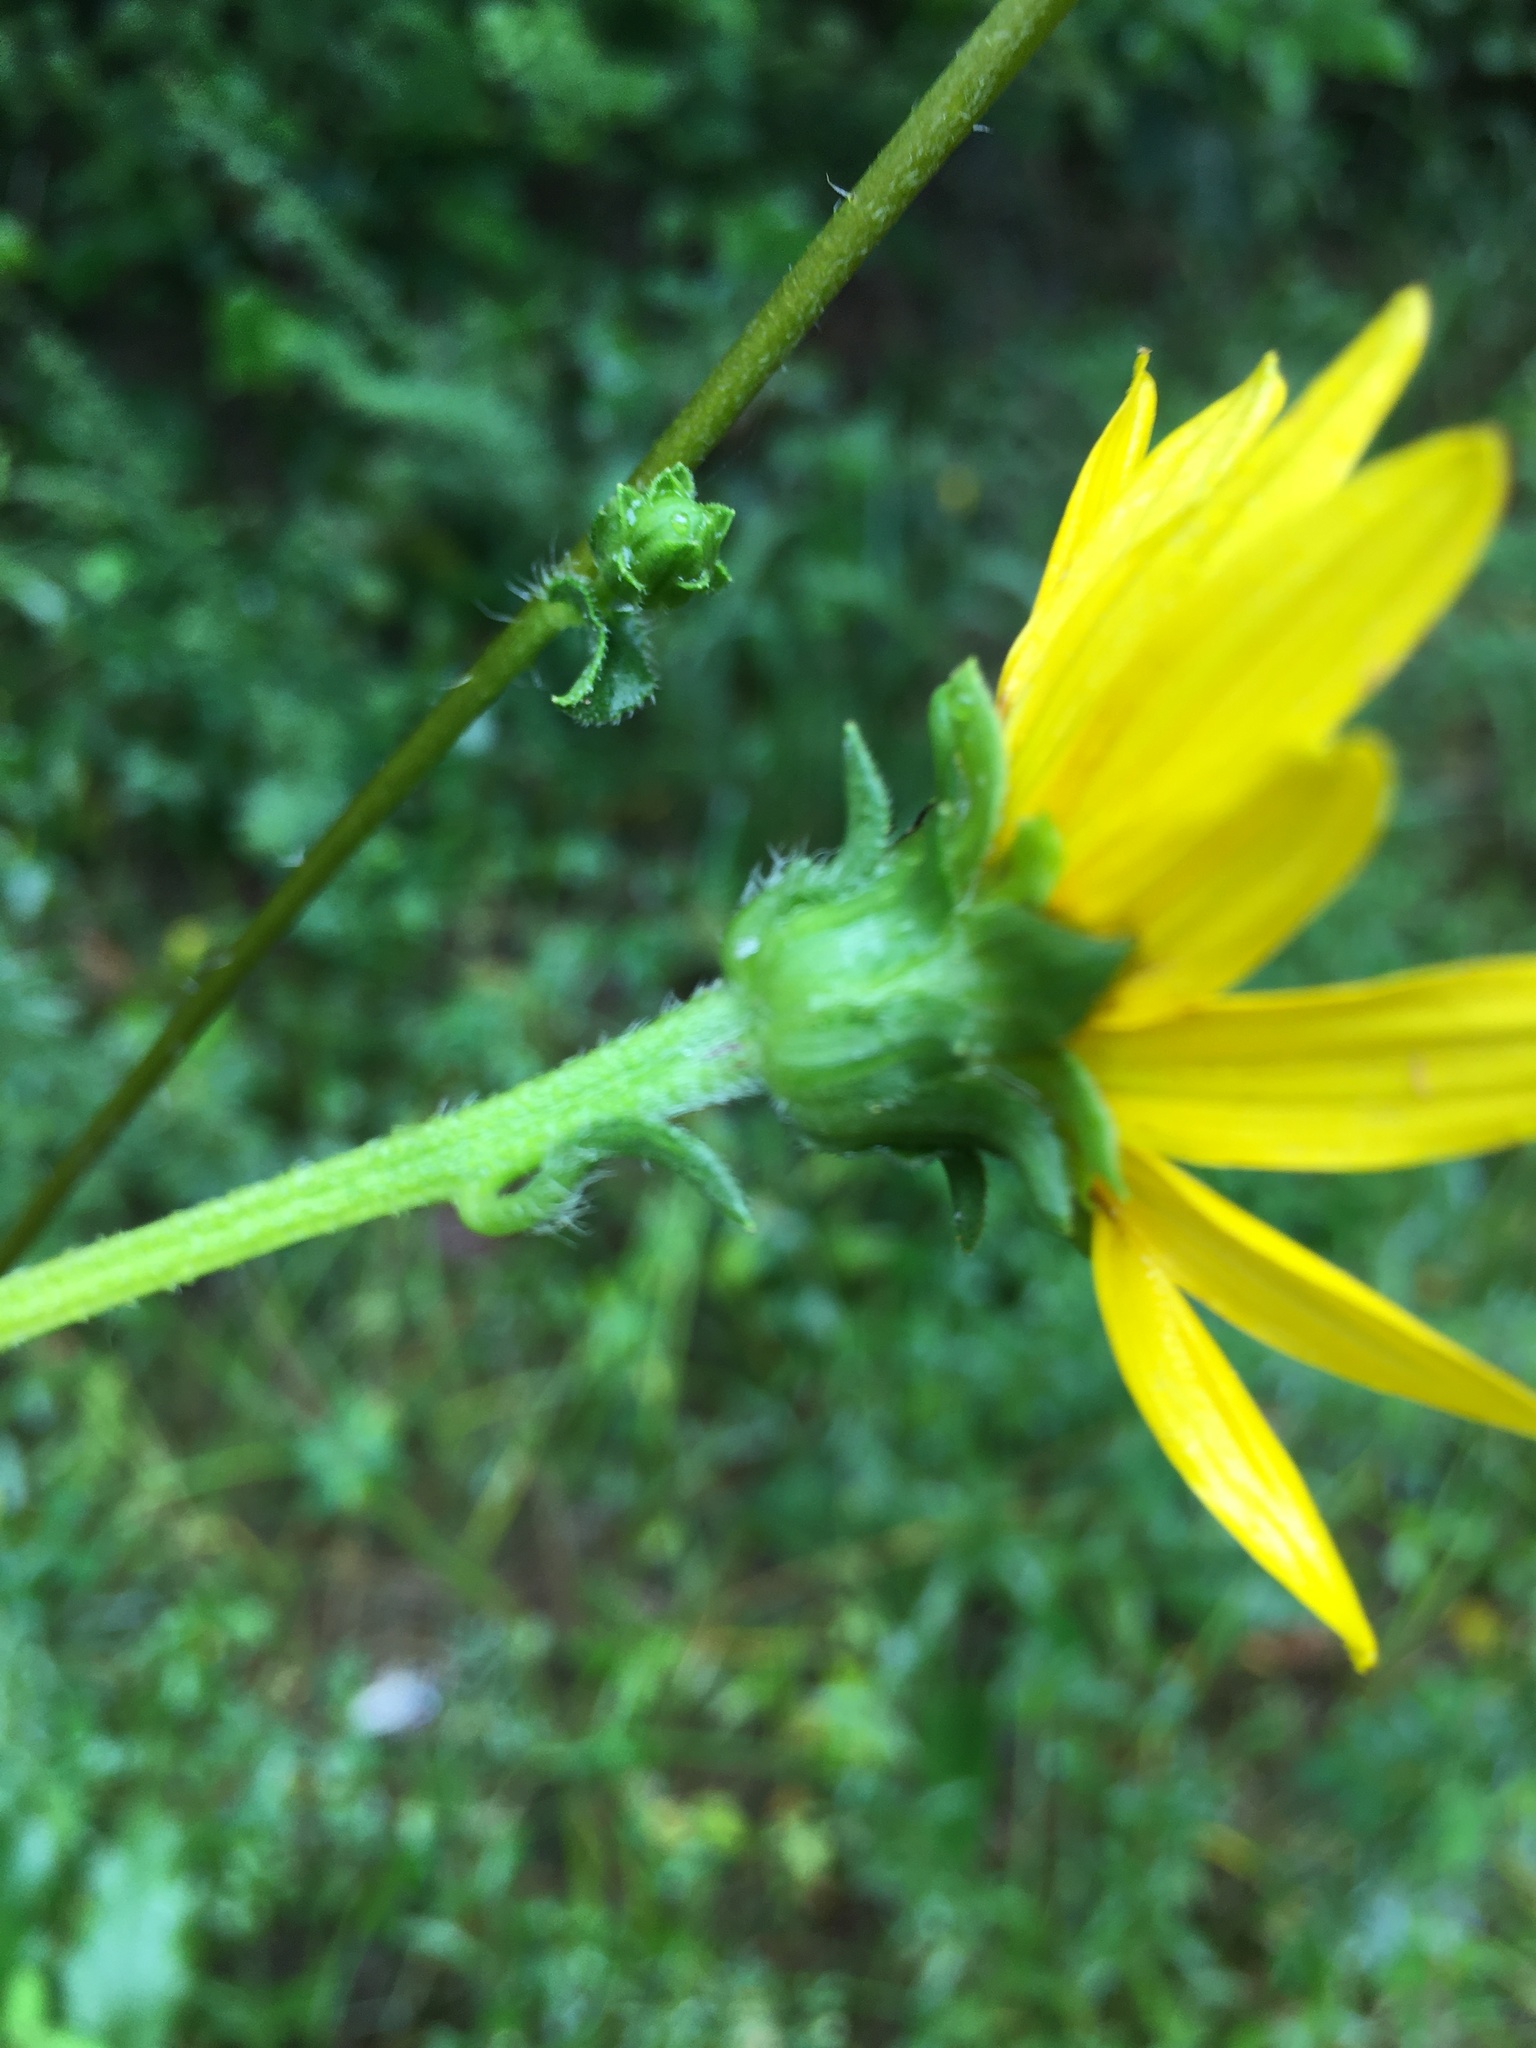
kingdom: Plantae
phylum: Tracheophyta
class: Magnoliopsida
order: Asterales
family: Asteraceae
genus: Helianthus
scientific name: Helianthus atrorubens
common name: Dark-eyed sunflower
